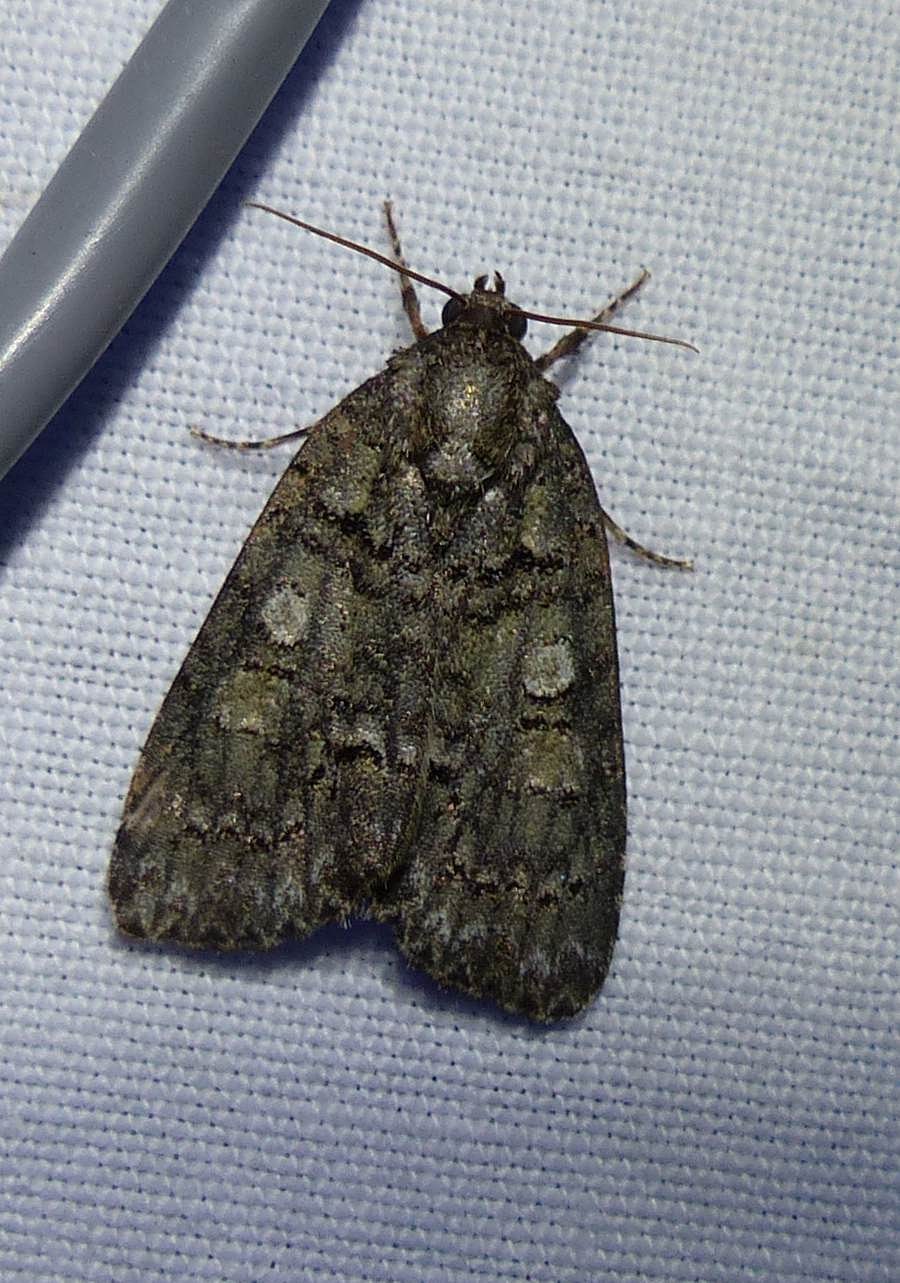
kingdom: Animalia
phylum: Arthropoda
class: Insecta
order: Lepidoptera
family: Noctuidae
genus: Acronicta
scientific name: Acronicta increta
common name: Eclipsed oak dagger
